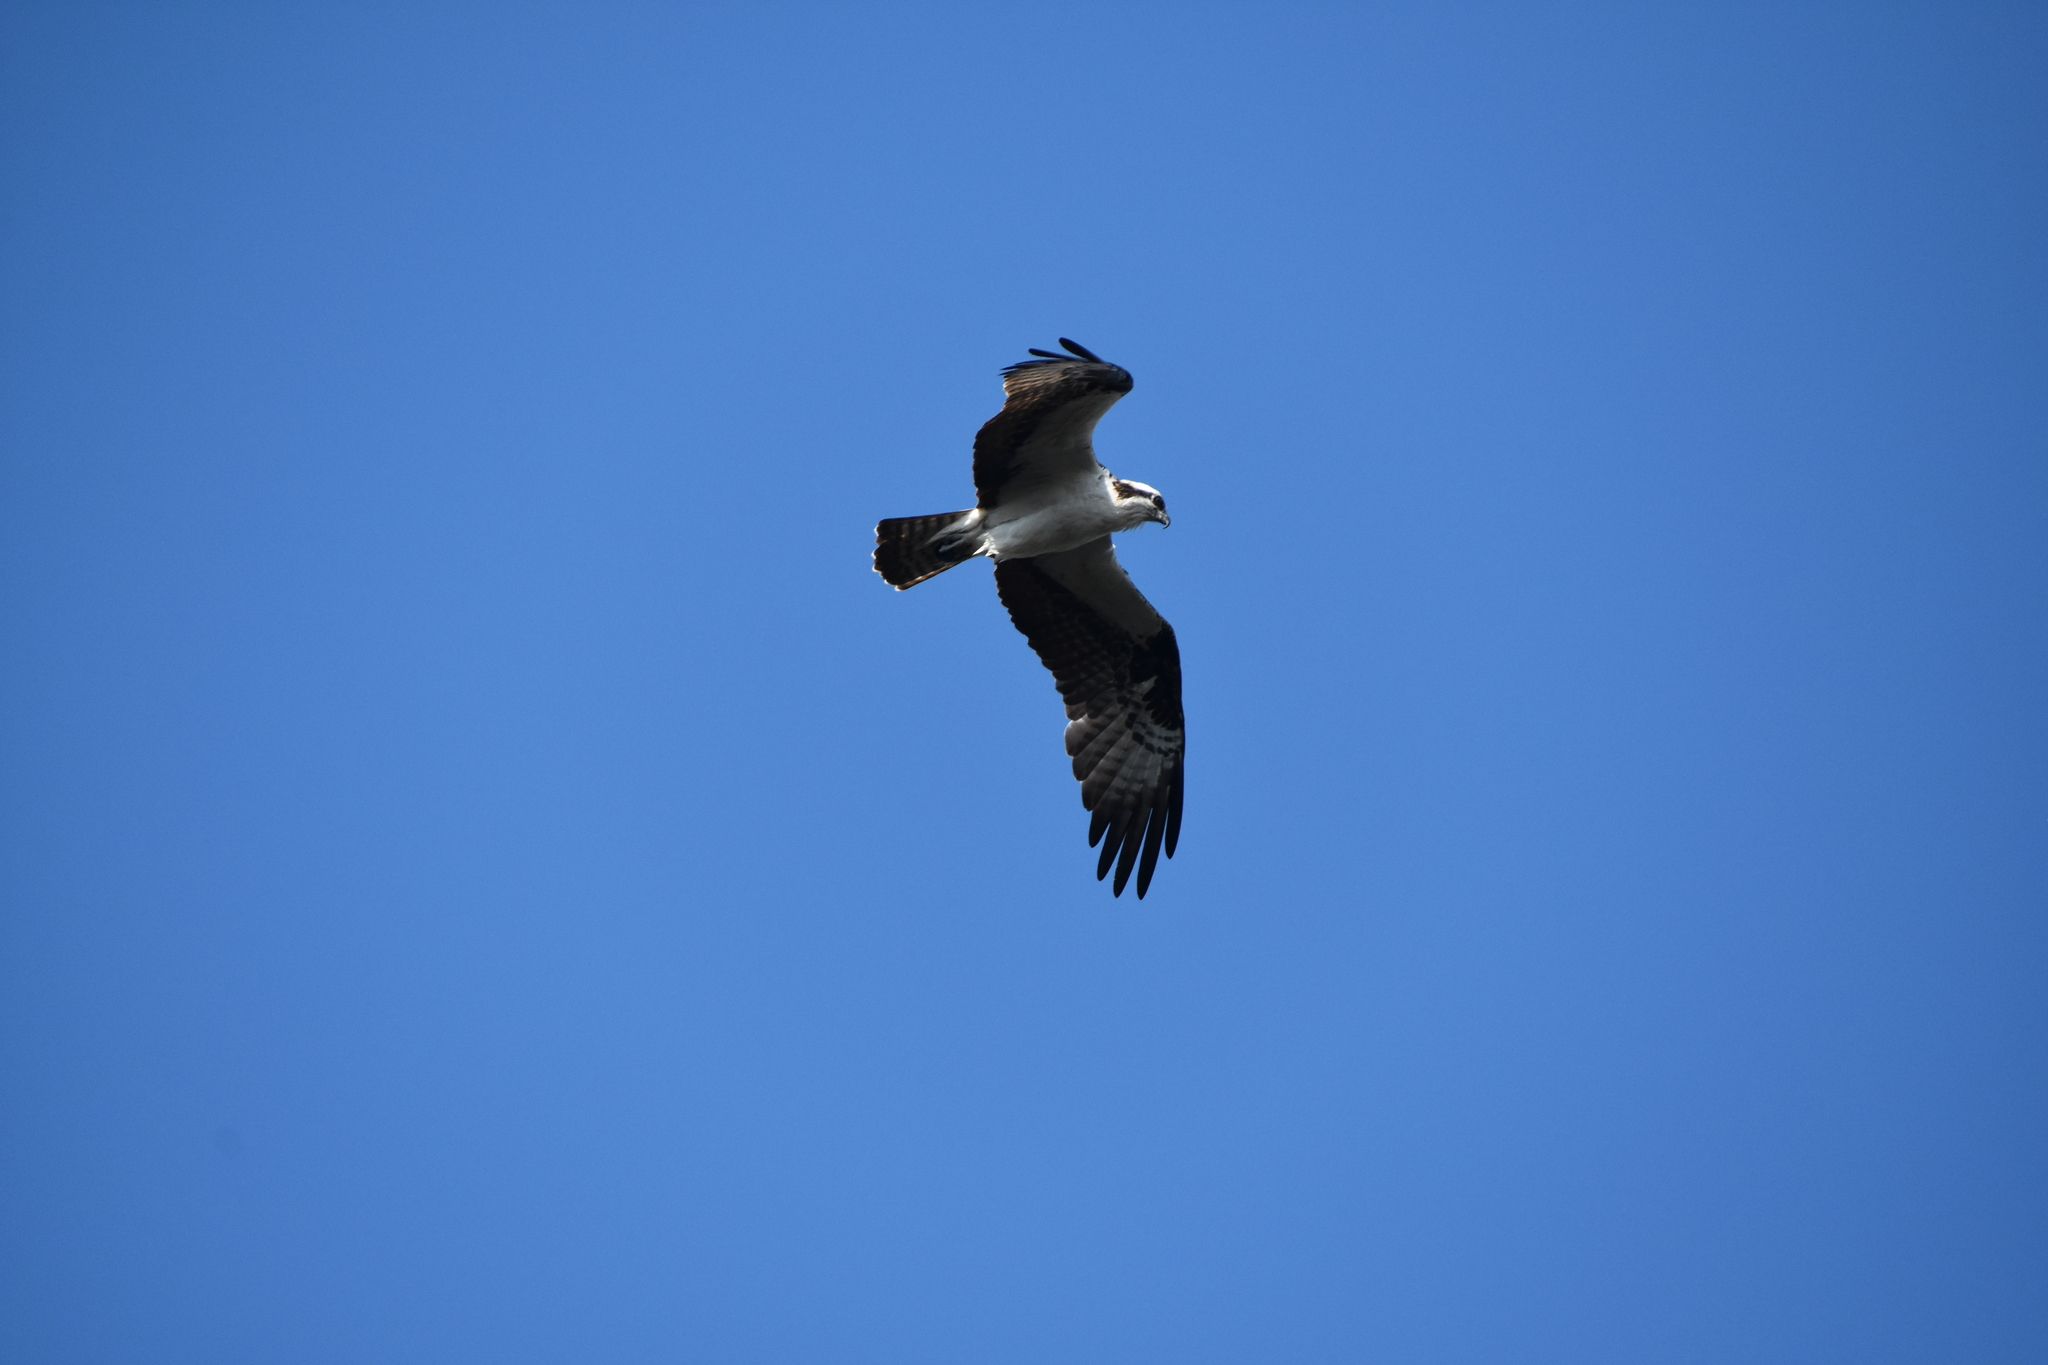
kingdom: Animalia
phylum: Chordata
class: Aves
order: Accipitriformes
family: Pandionidae
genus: Pandion
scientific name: Pandion haliaetus
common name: Osprey
